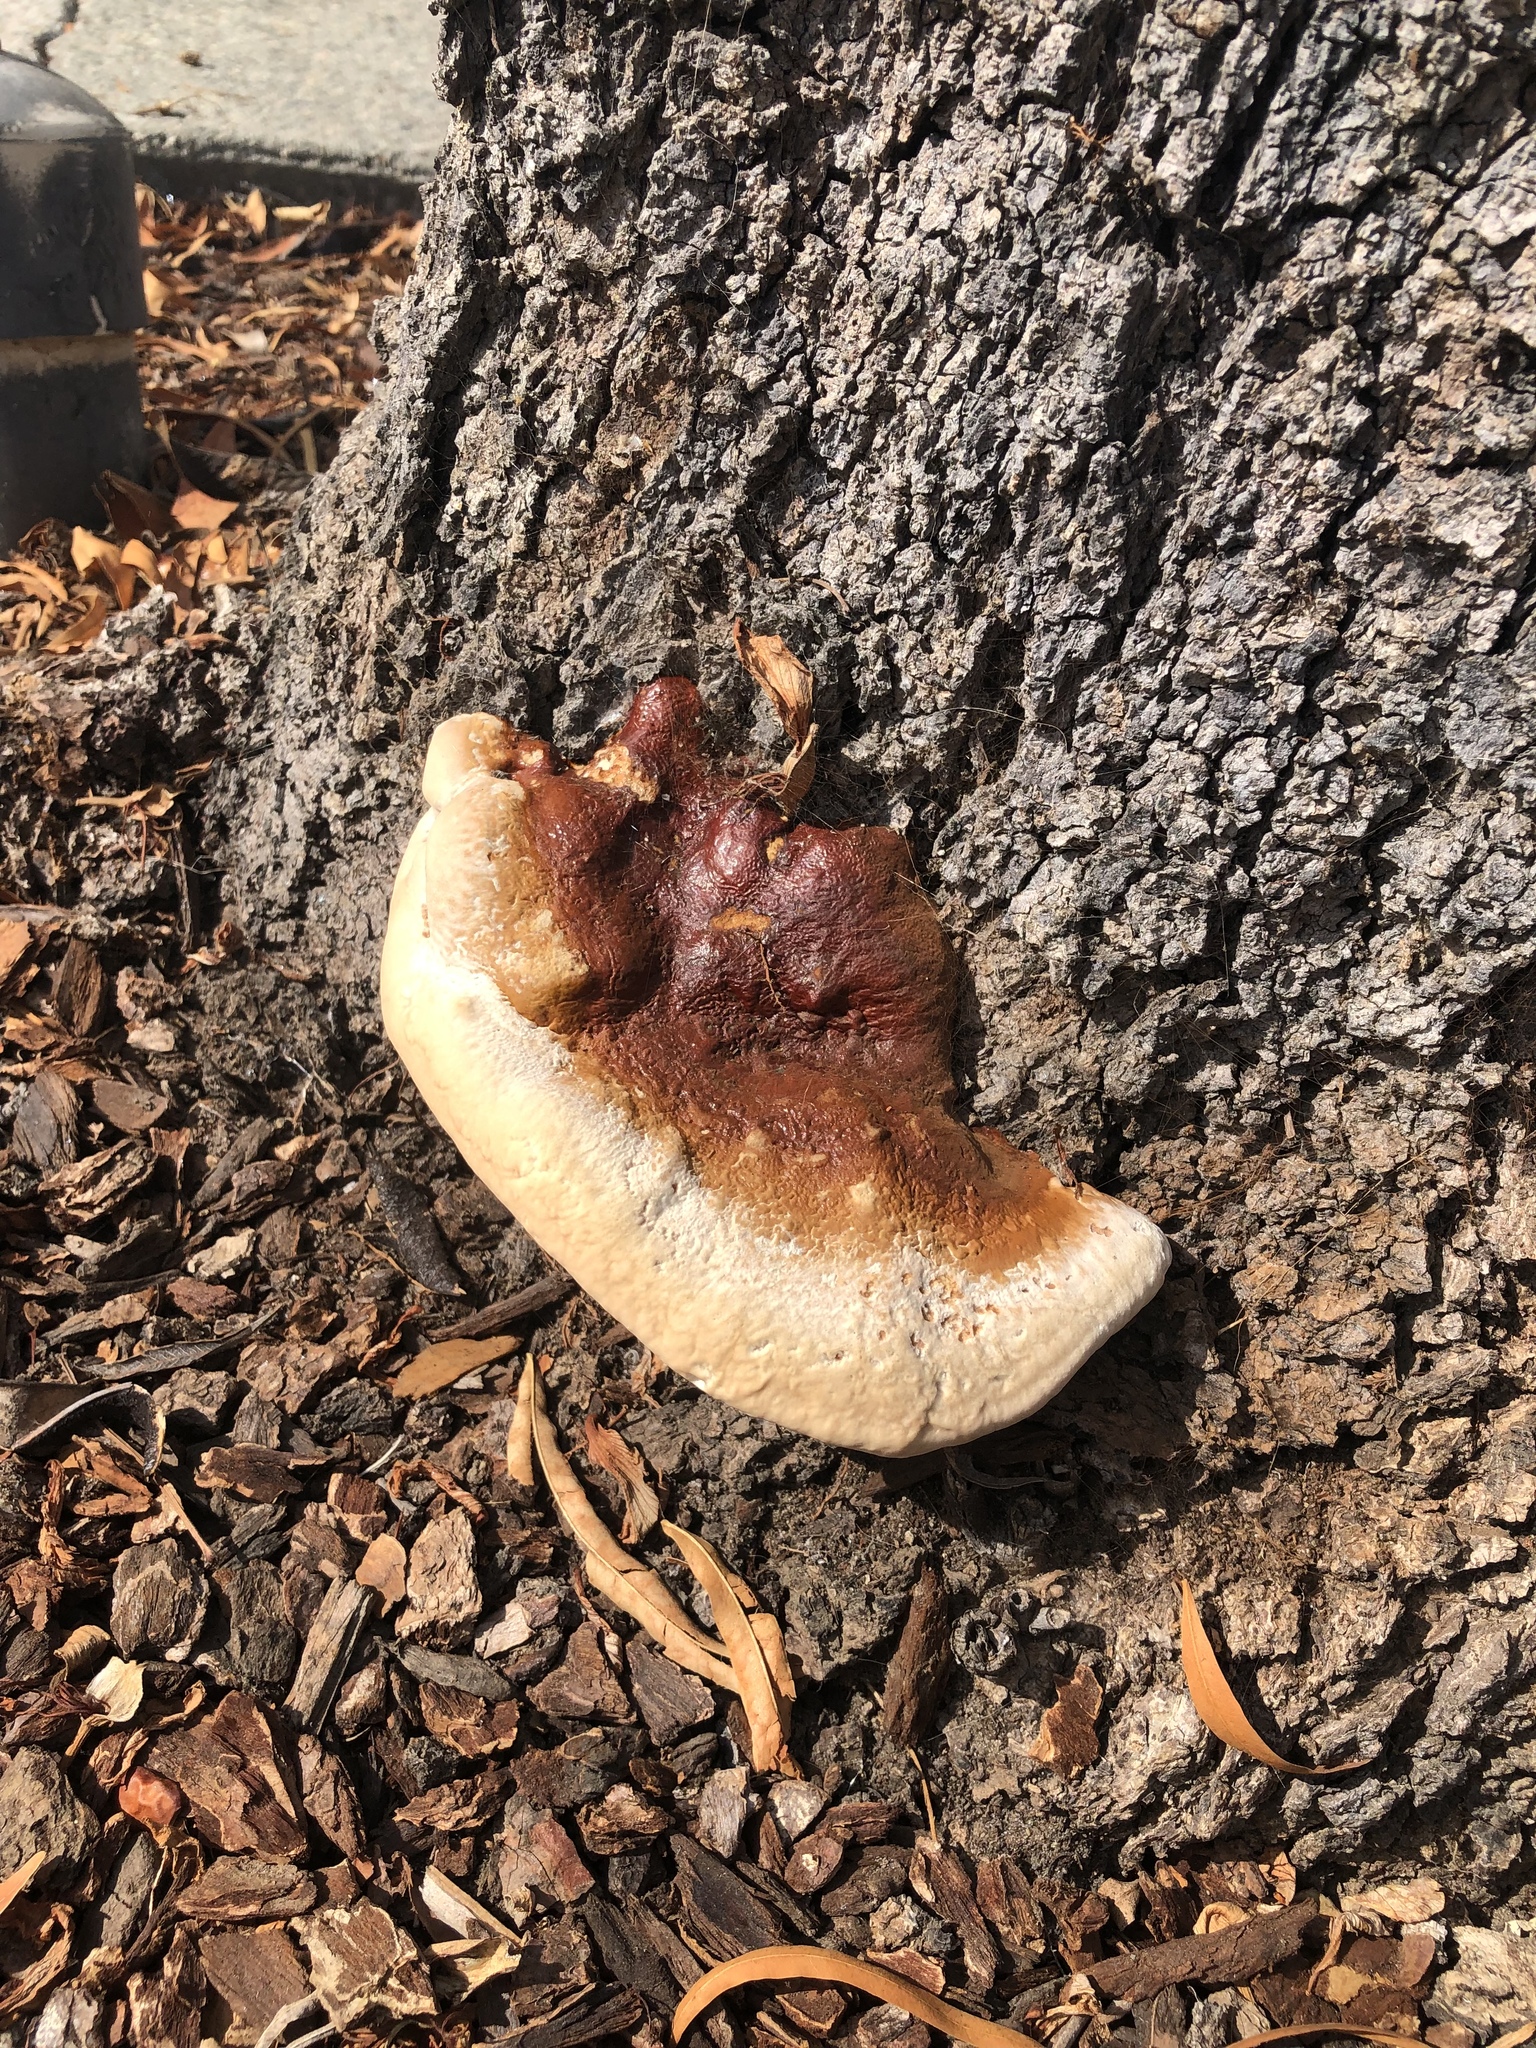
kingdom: Fungi
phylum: Basidiomycota
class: Agaricomycetes
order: Polyporales
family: Polyporaceae
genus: Ganoderma
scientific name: Ganoderma polychromum
